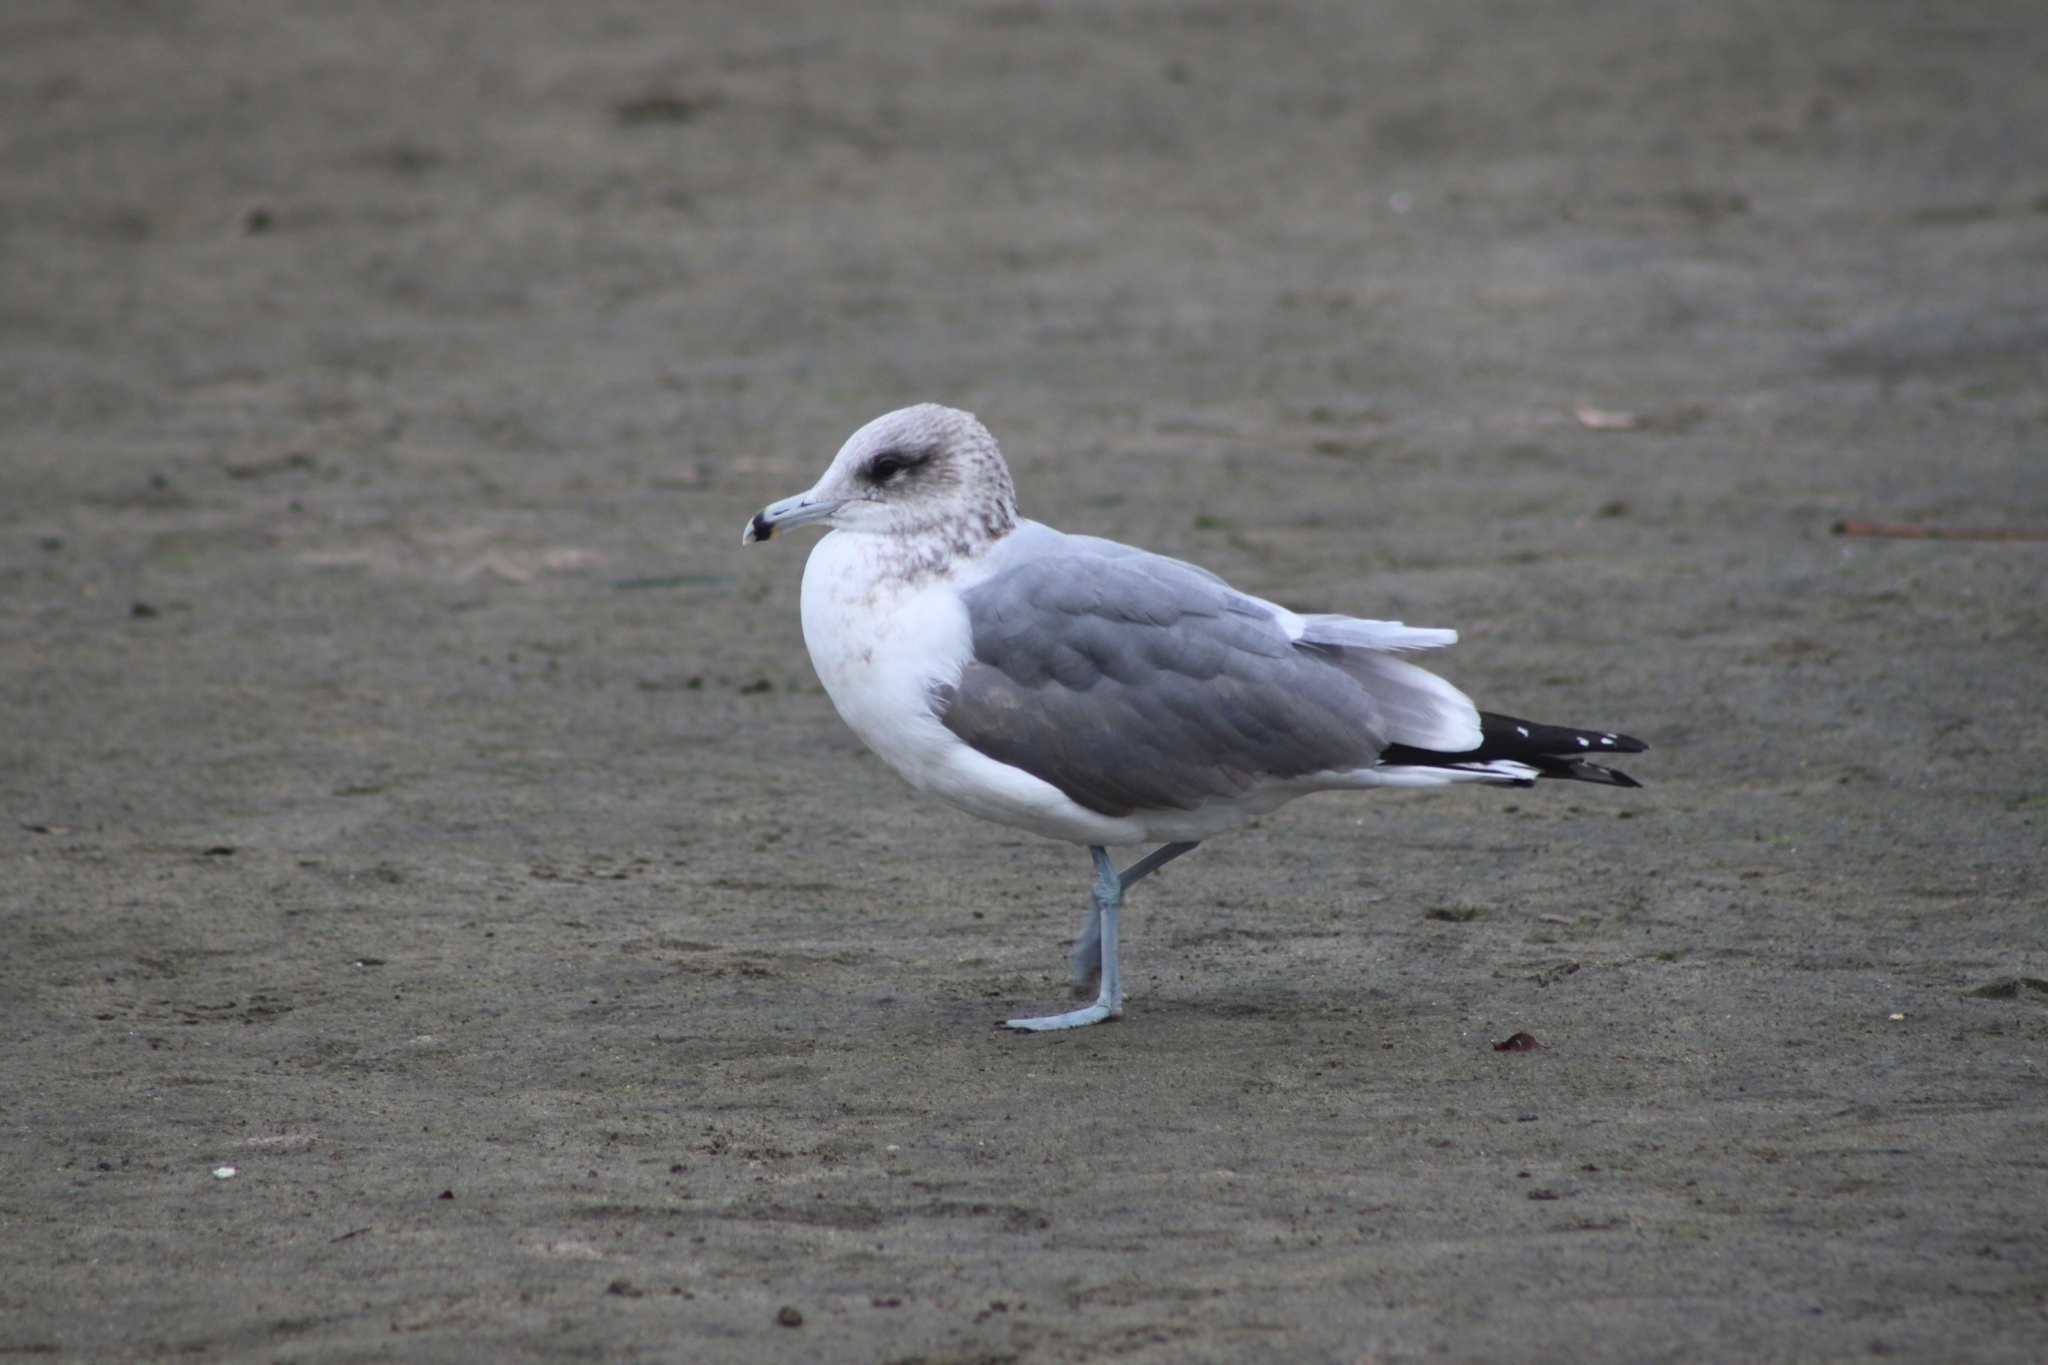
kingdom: Animalia
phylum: Chordata
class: Aves
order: Charadriiformes
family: Laridae
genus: Larus
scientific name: Larus californicus
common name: California gull
